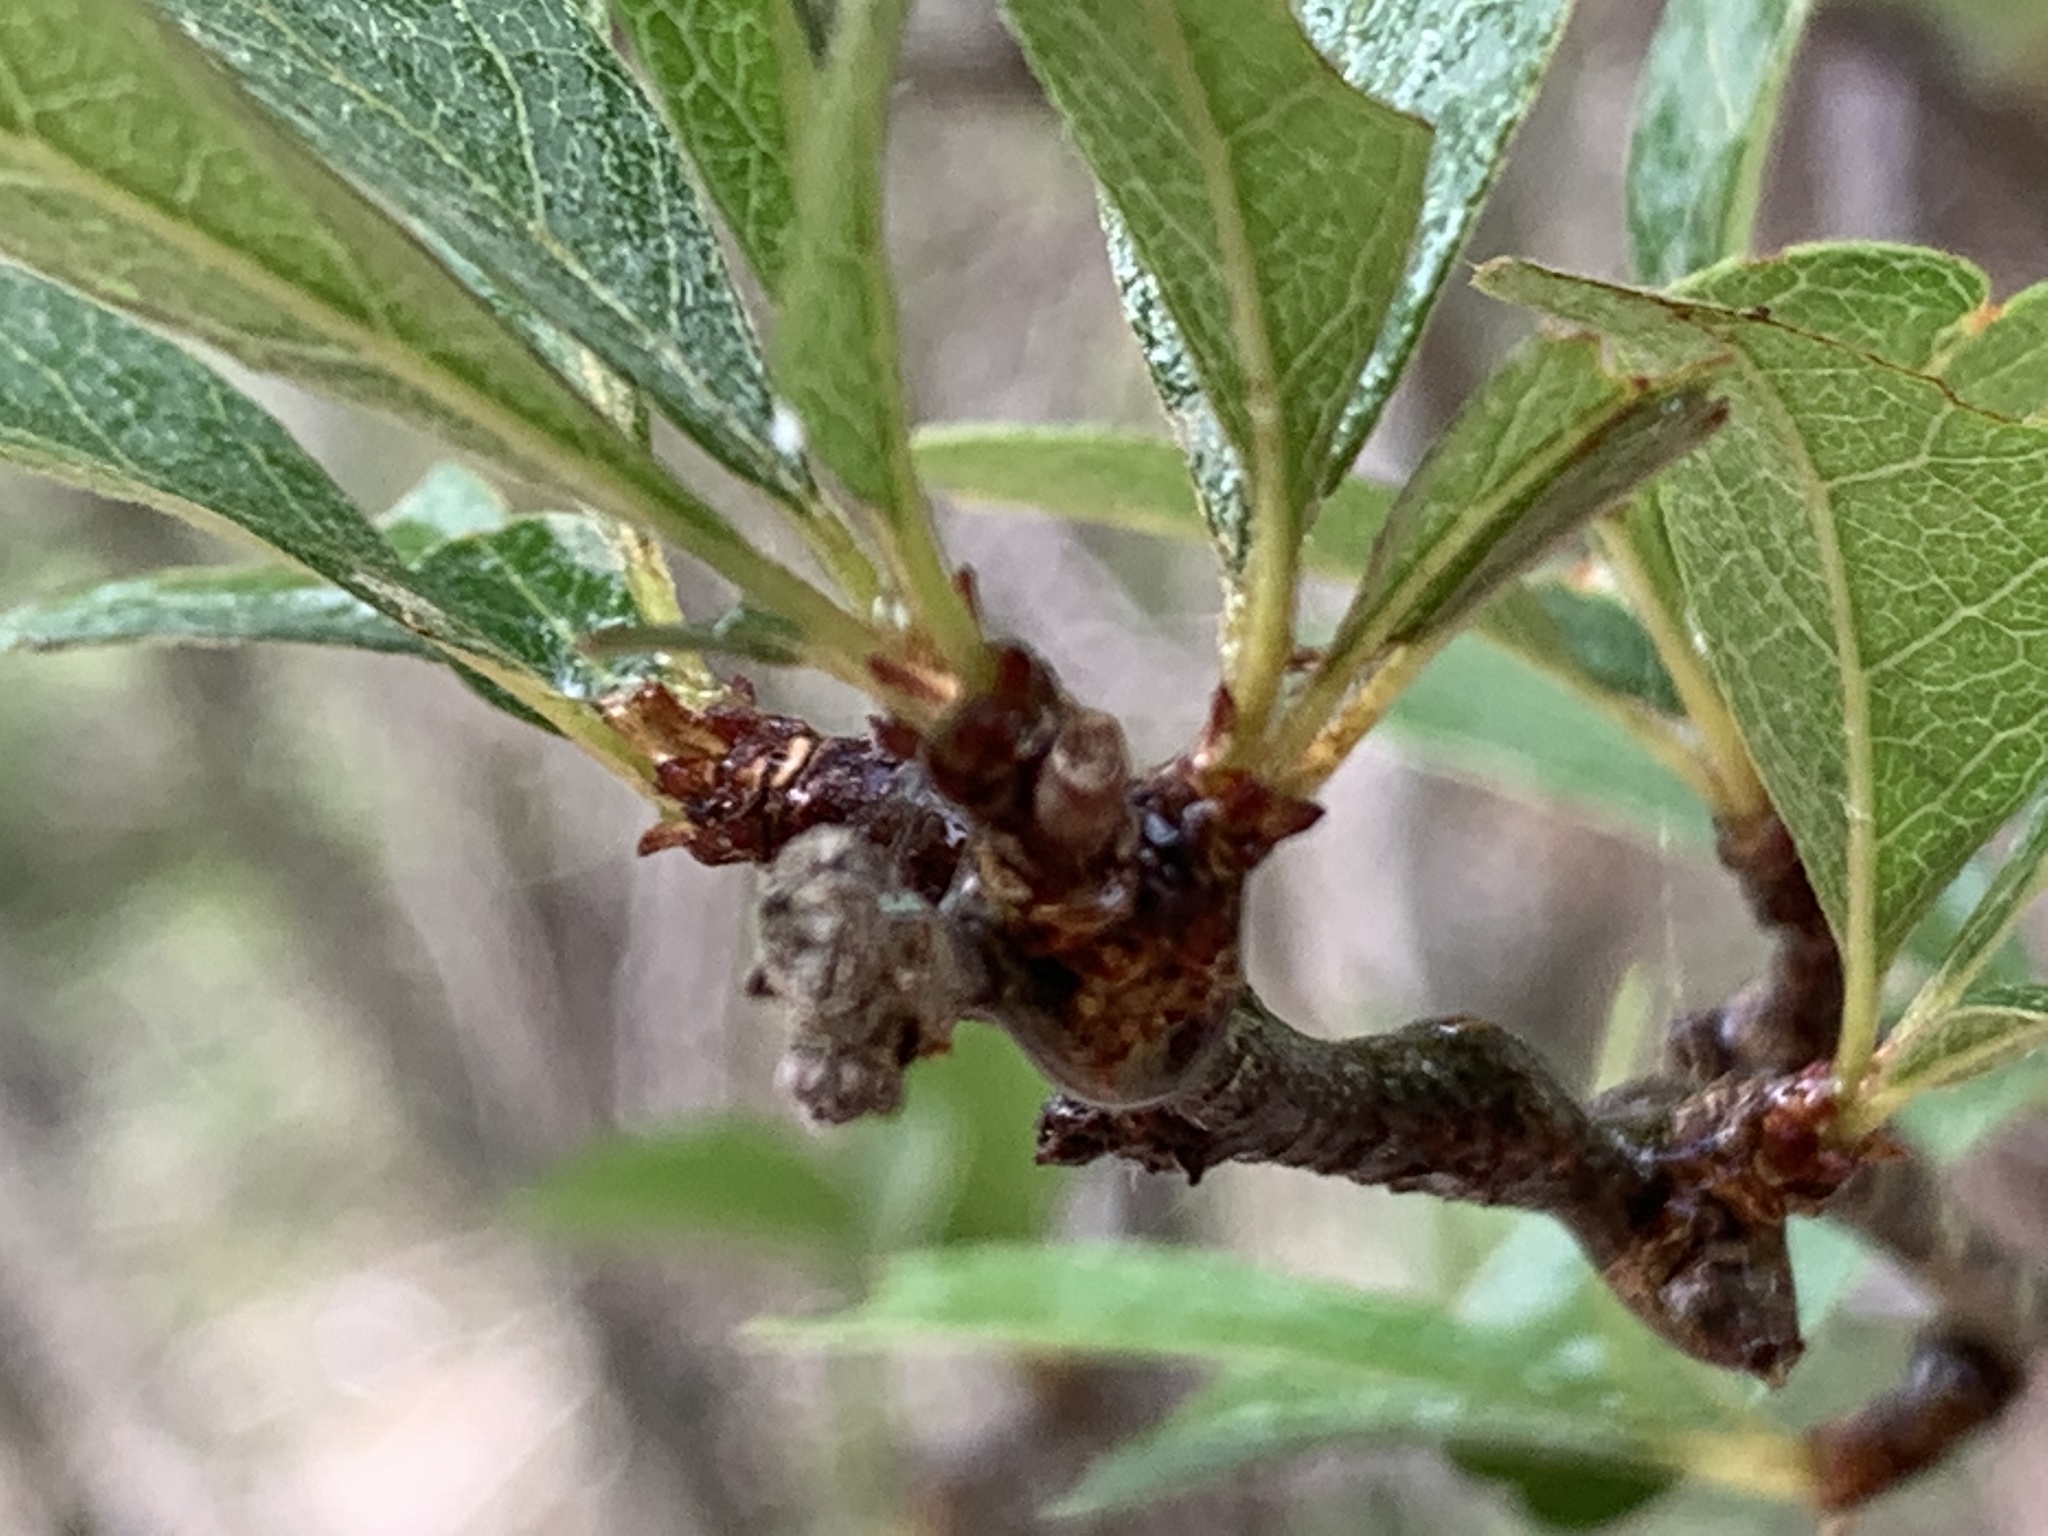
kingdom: Plantae
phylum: Tracheophyta
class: Magnoliopsida
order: Ericales
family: Sapotaceae
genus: Sideroxylon
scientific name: Sideroxylon lanuginosum
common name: Chittamwood
